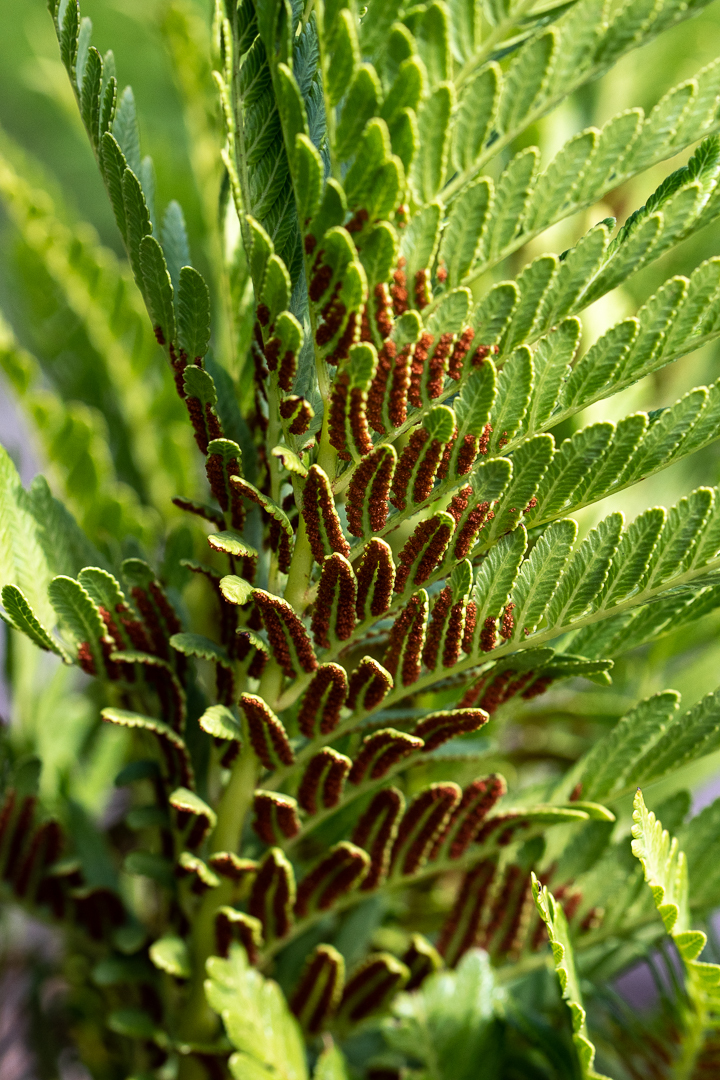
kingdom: Plantae
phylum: Tracheophyta
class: Polypodiopsida
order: Osmundales
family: Osmundaceae
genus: Todea
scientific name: Todea barbara
